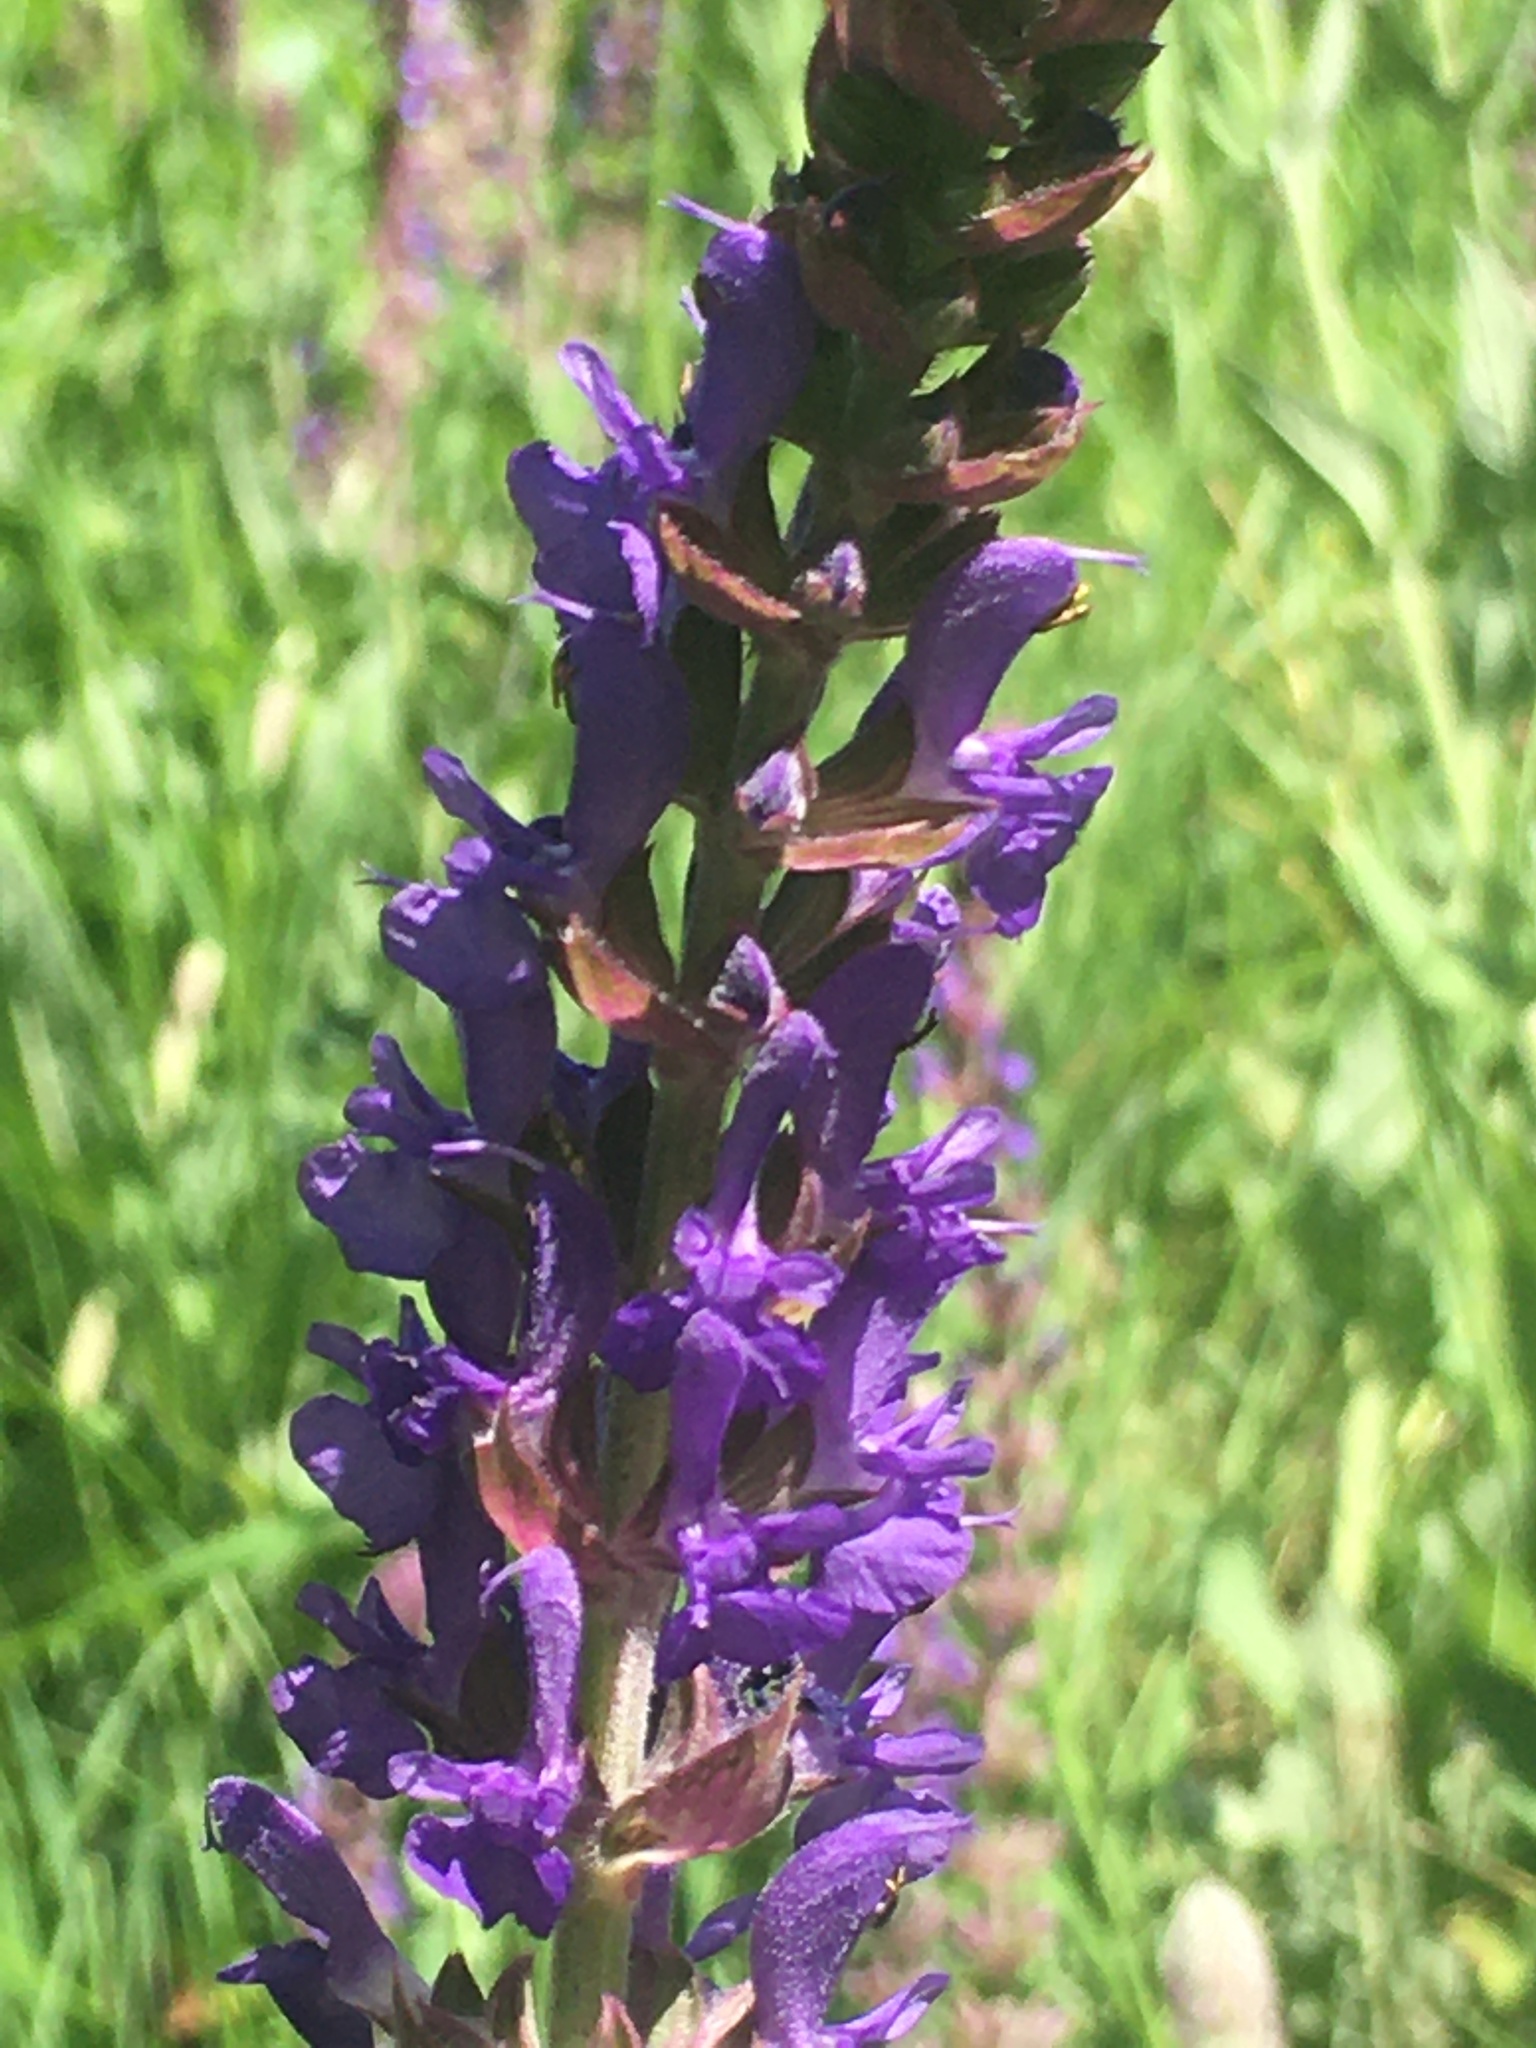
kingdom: Plantae
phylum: Tracheophyta
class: Magnoliopsida
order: Lamiales
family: Lamiaceae
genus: Salvia
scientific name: Salvia nemorosa
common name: Balkan clary
